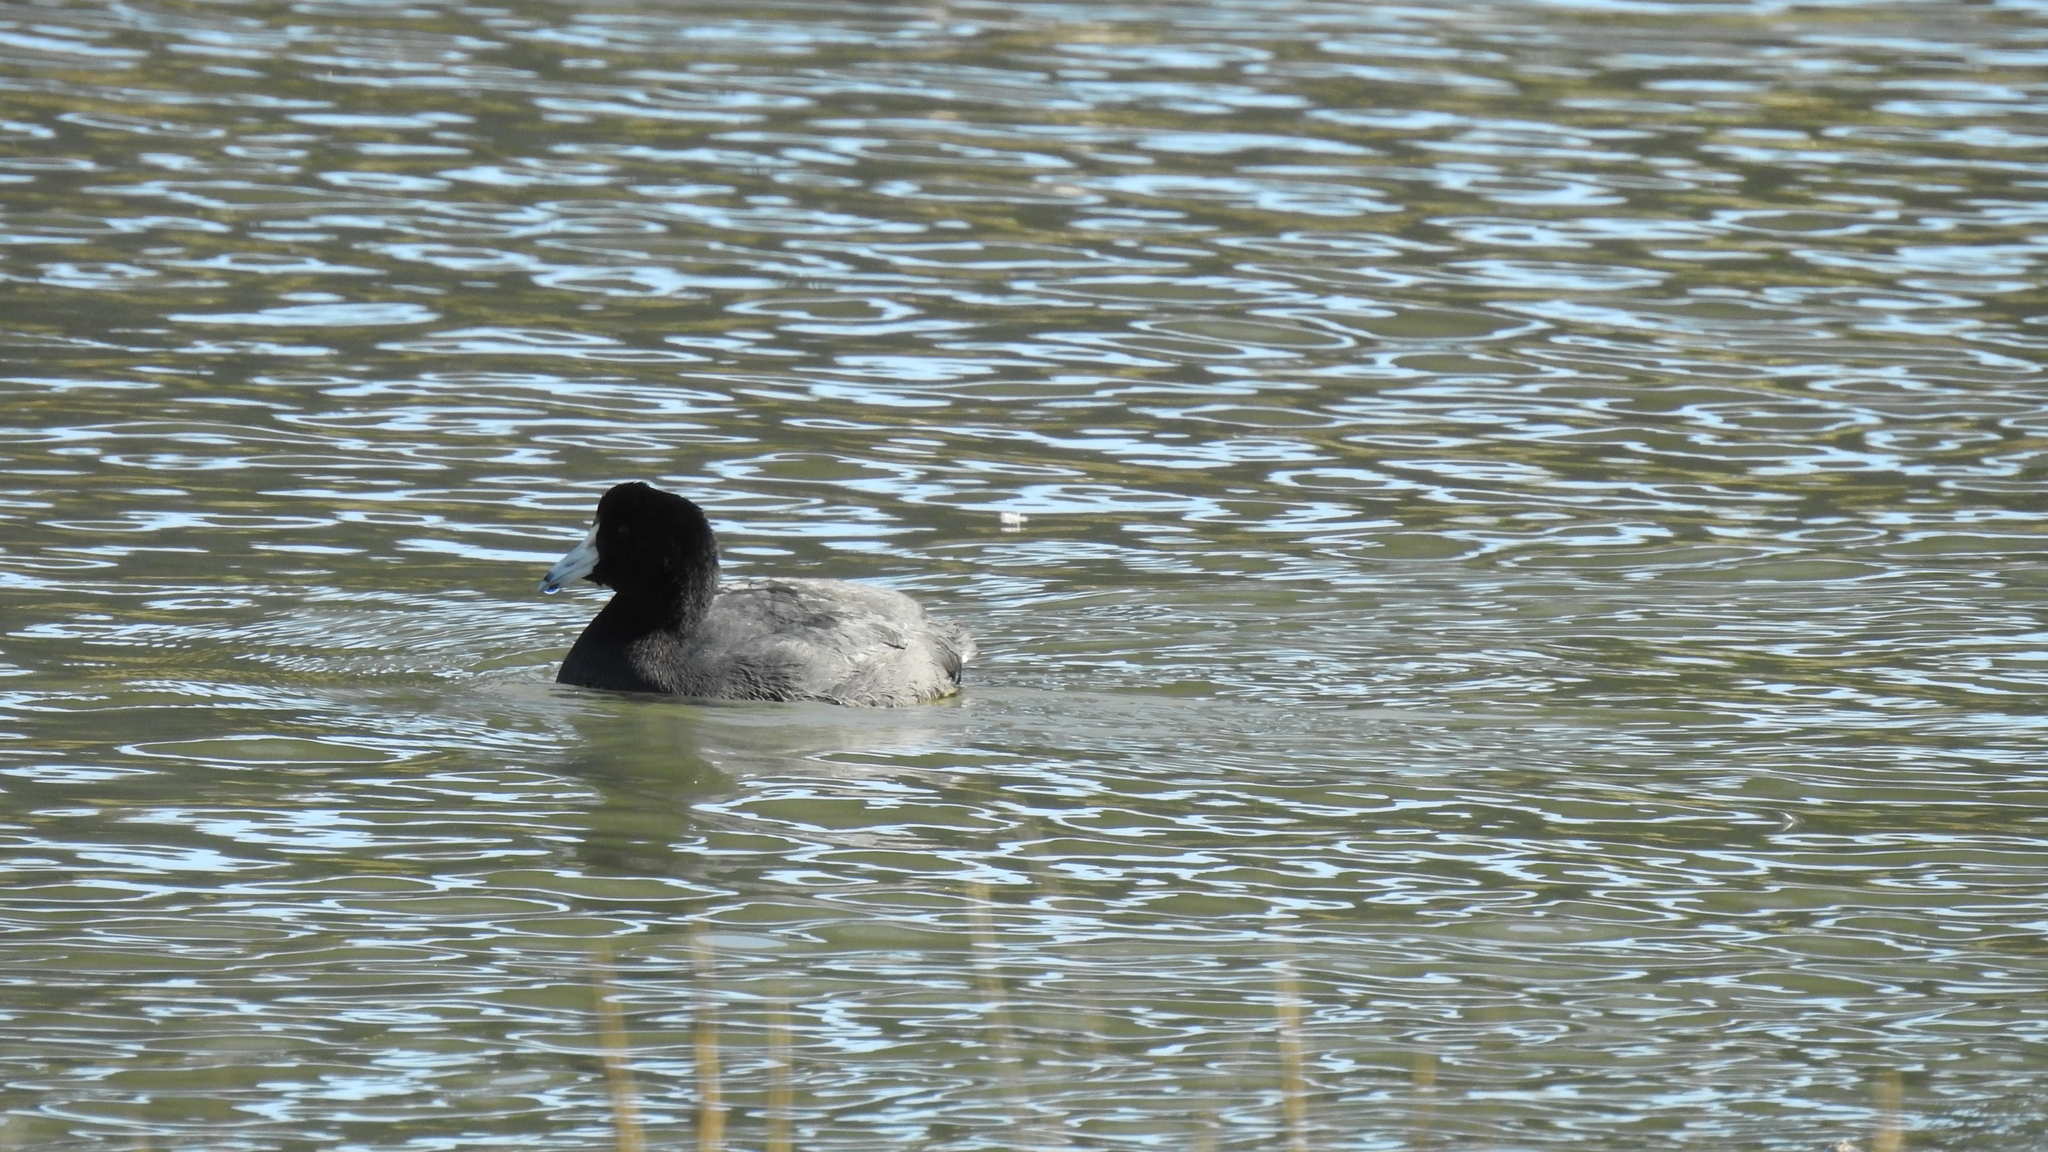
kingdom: Animalia
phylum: Chordata
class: Aves
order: Gruiformes
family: Rallidae
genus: Fulica
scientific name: Fulica americana
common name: American coot
